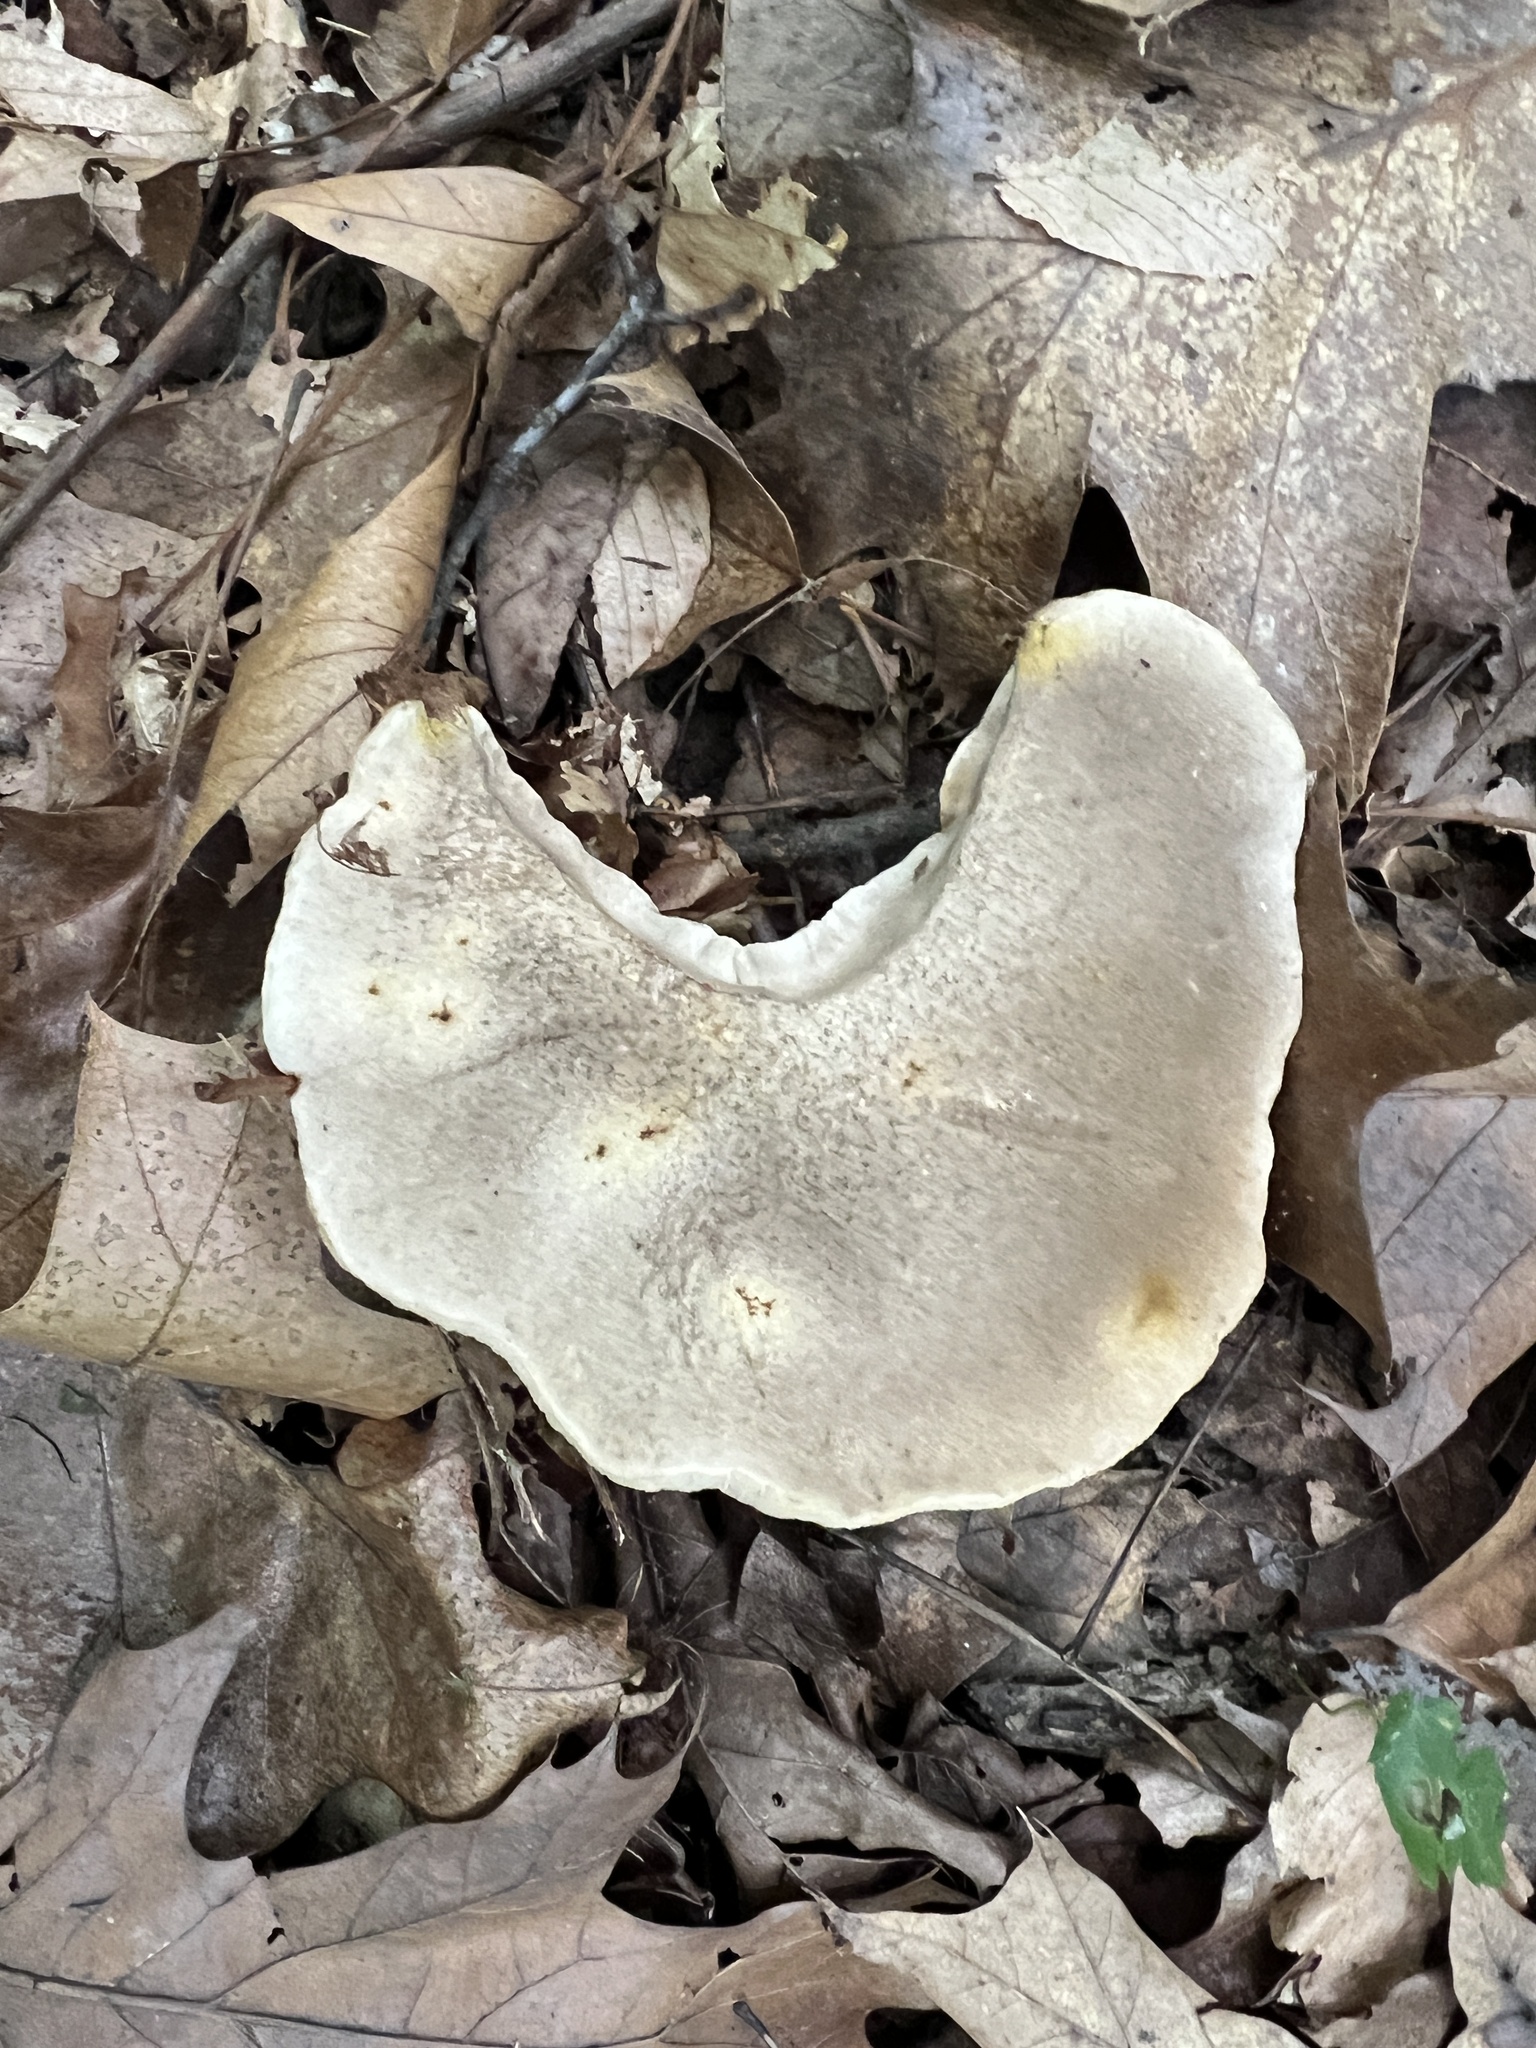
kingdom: Fungi
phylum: Basidiomycota
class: Agaricomycetes
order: Boletales
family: Boletaceae
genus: Retiboletus
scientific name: Retiboletus griseus
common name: Grey bolete
